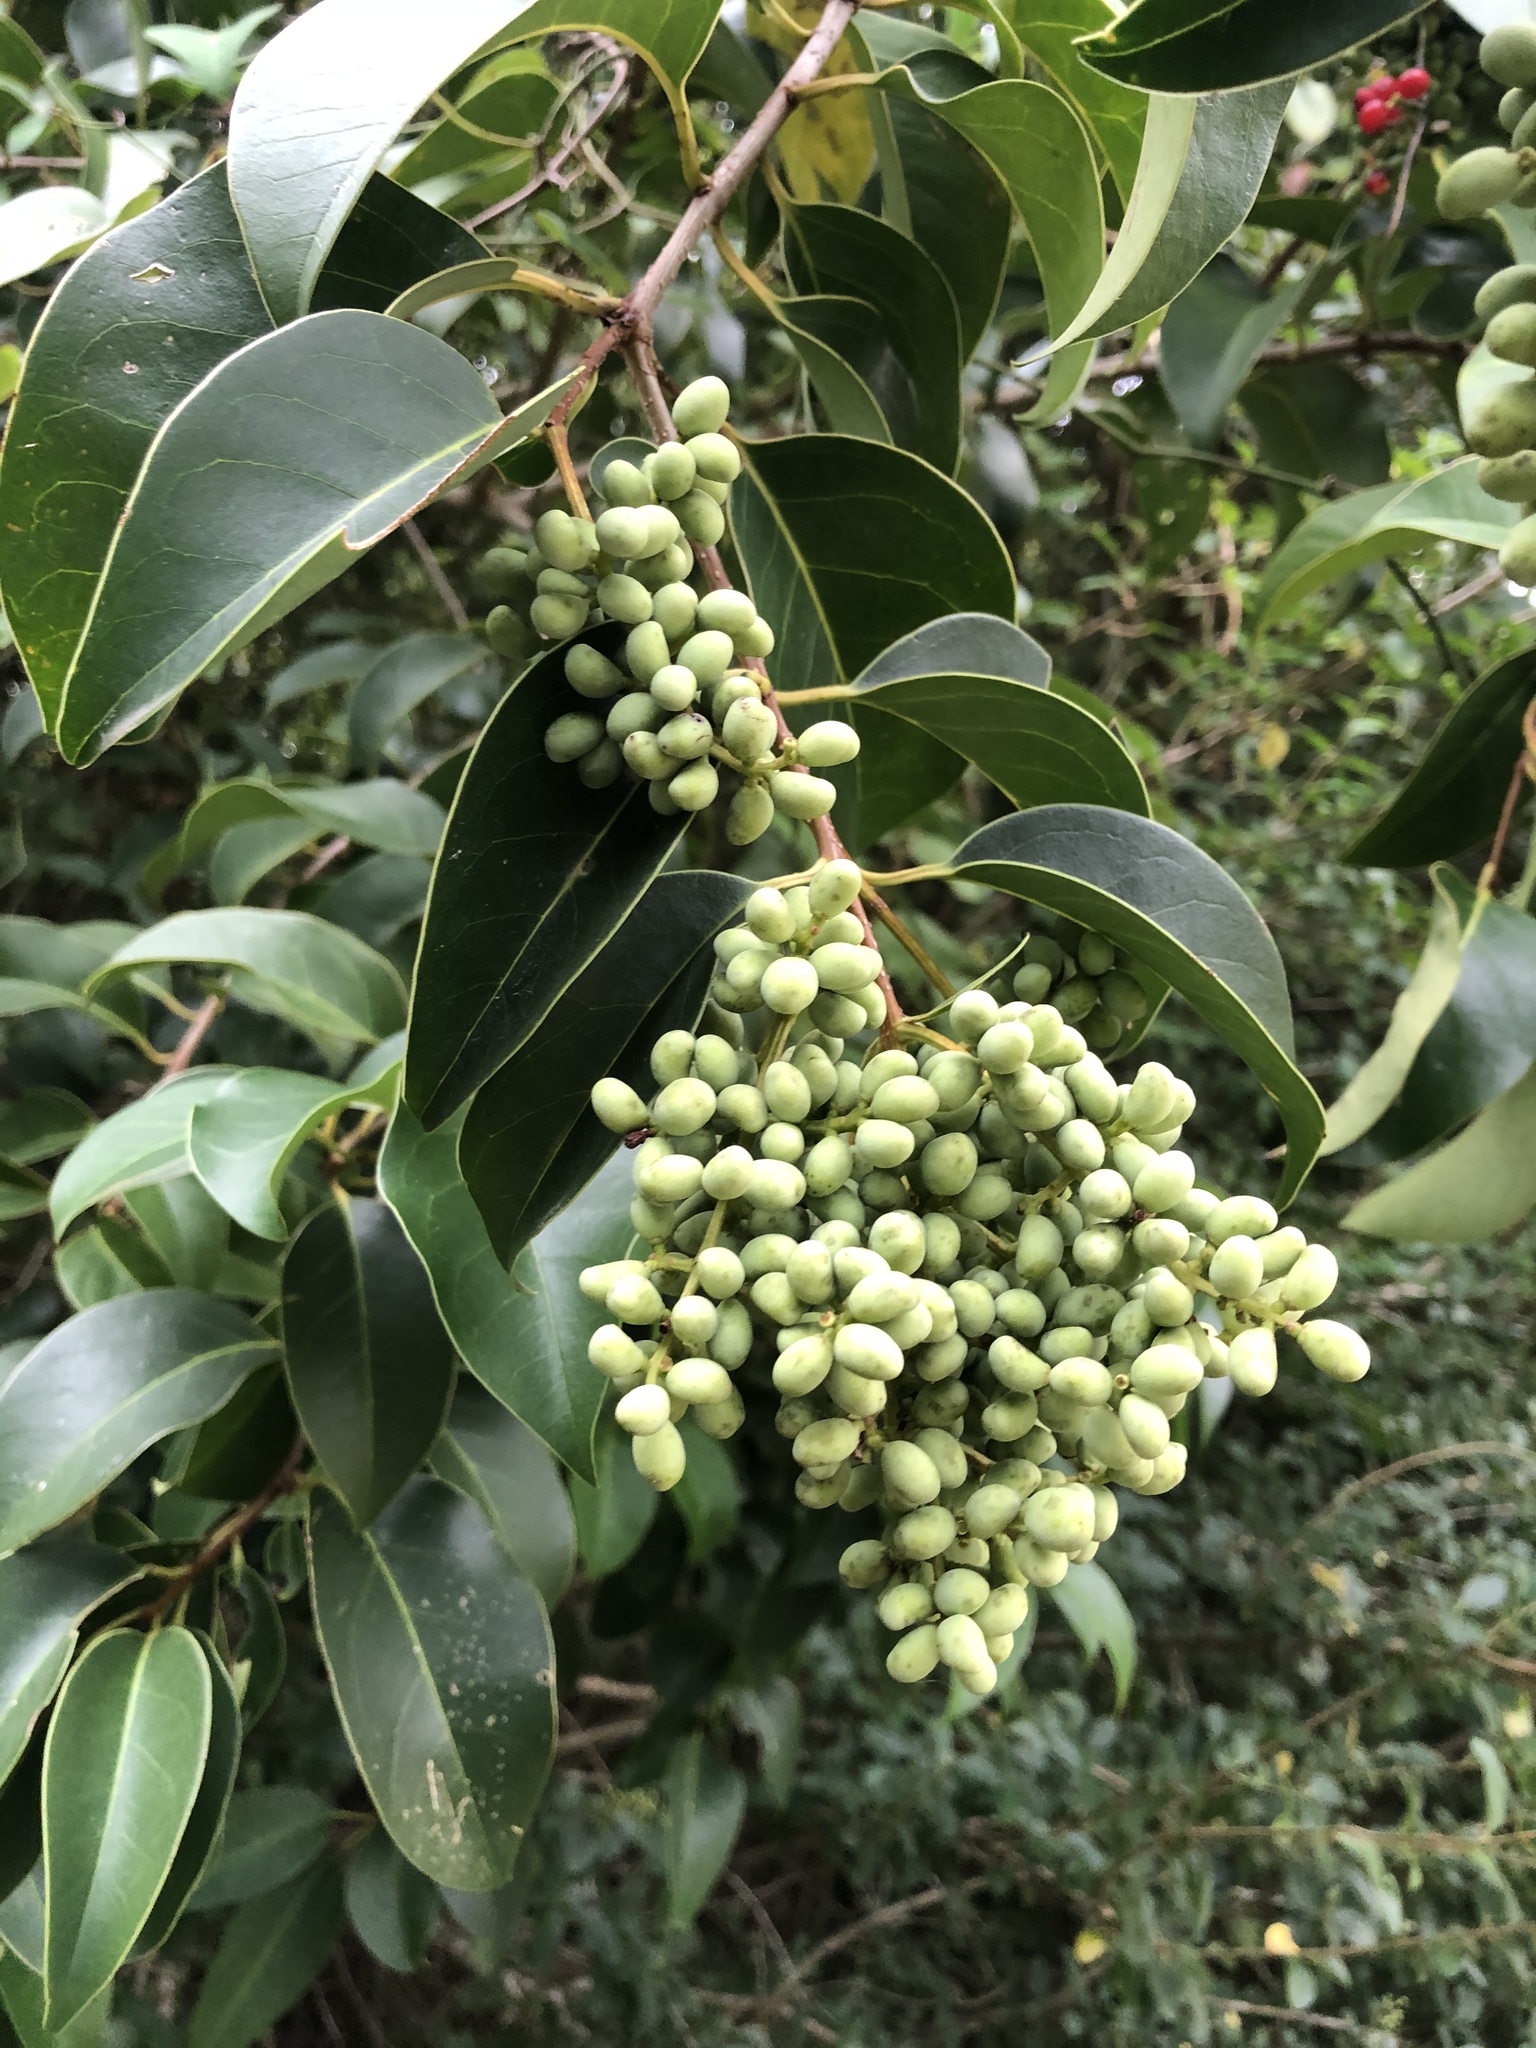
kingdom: Plantae
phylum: Tracheophyta
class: Magnoliopsida
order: Lamiales
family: Oleaceae
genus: Ligustrum
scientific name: Ligustrum lucidum
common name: Glossy privet
